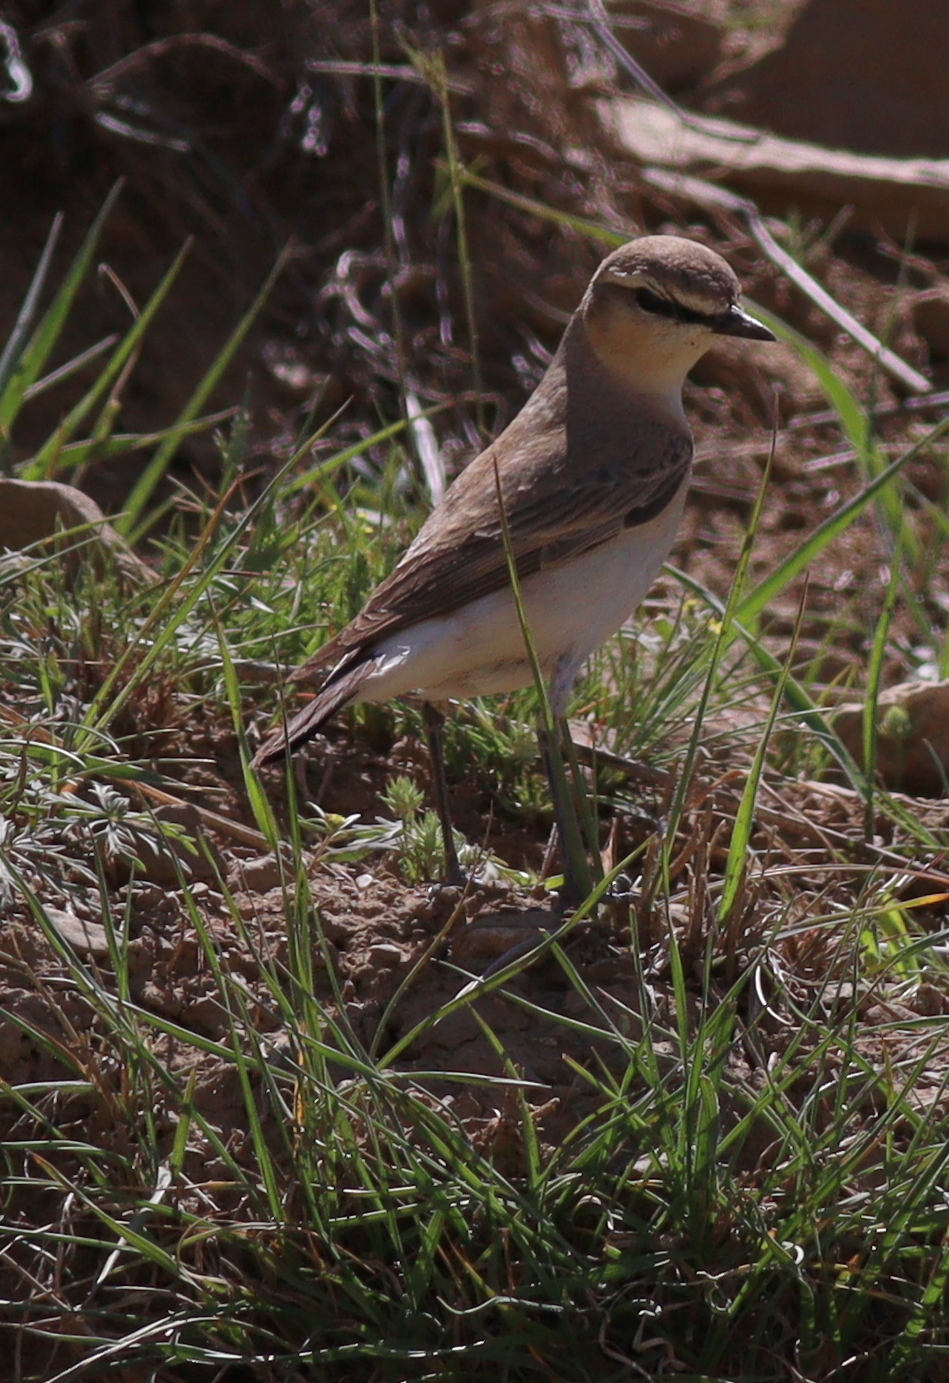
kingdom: Animalia
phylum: Chordata
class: Aves
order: Passeriformes
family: Muscicapidae
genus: Oenanthe
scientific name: Oenanthe isabellina
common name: Isabelline wheatear
